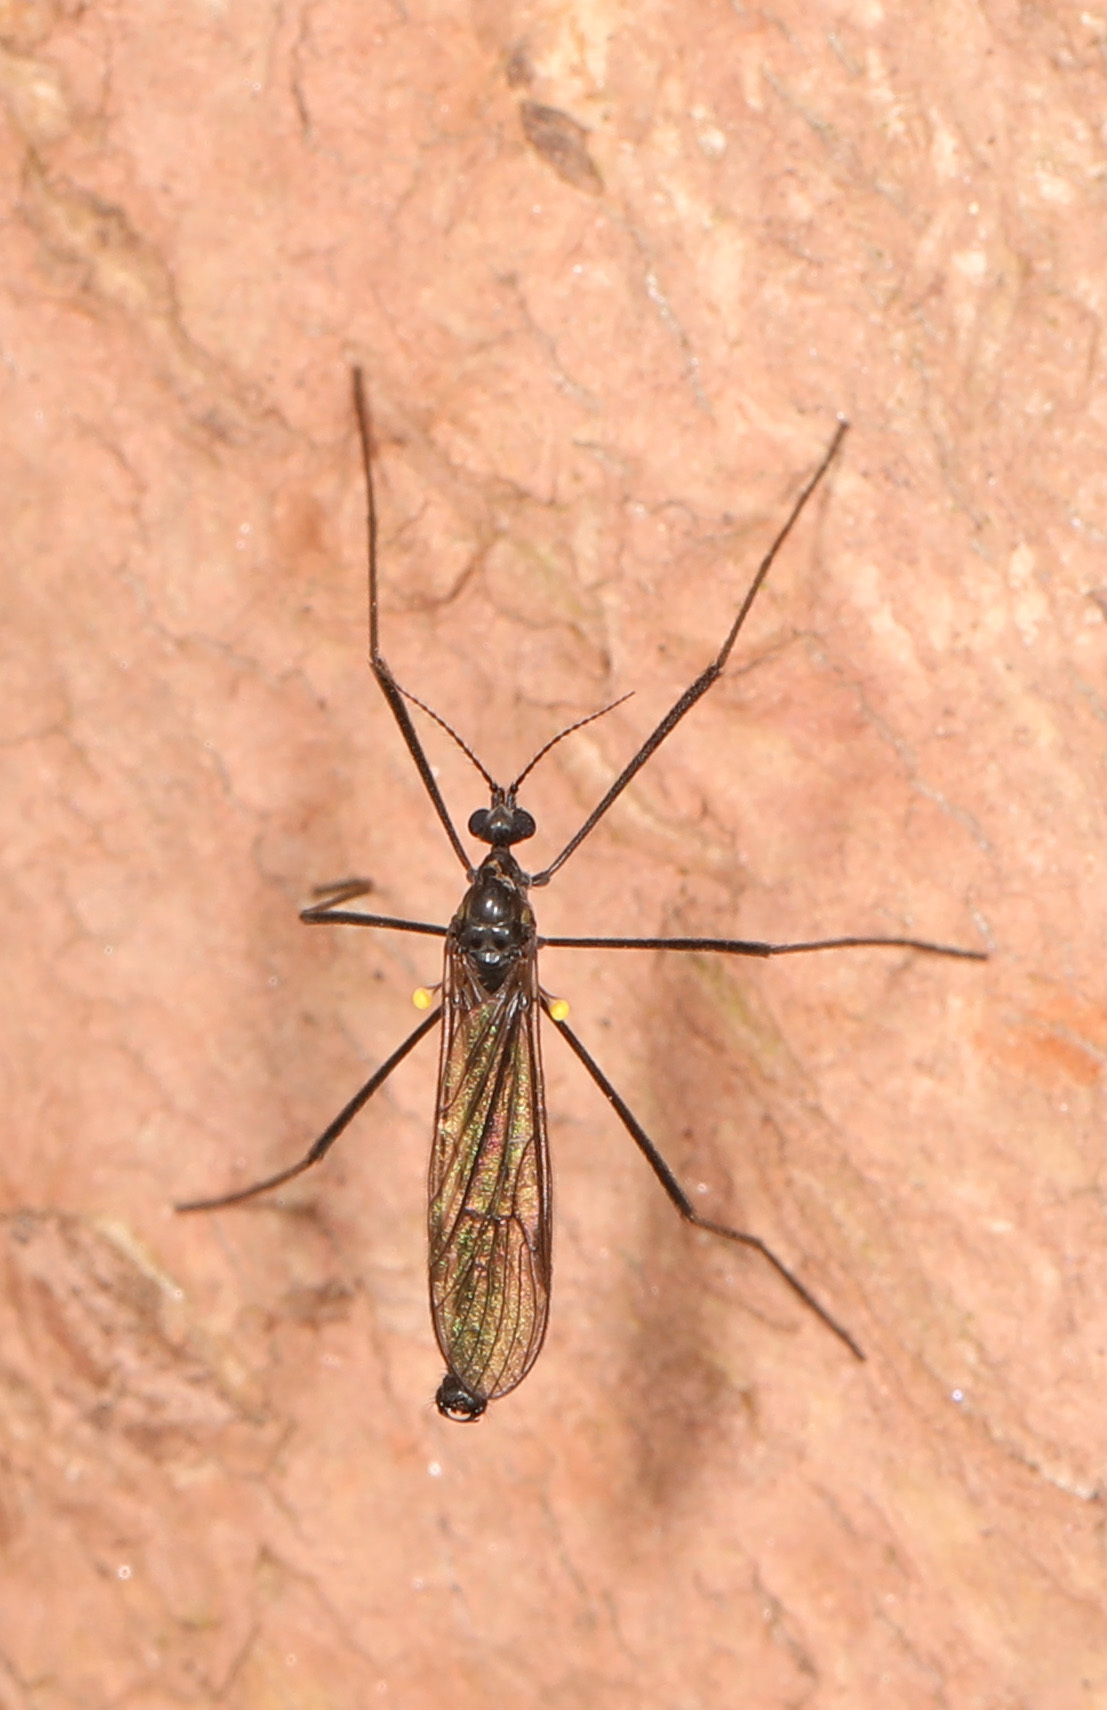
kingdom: Animalia
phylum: Arthropoda
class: Insecta
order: Diptera
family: Limoniidae
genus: Gnophomyia
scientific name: Gnophomyia tristissima
